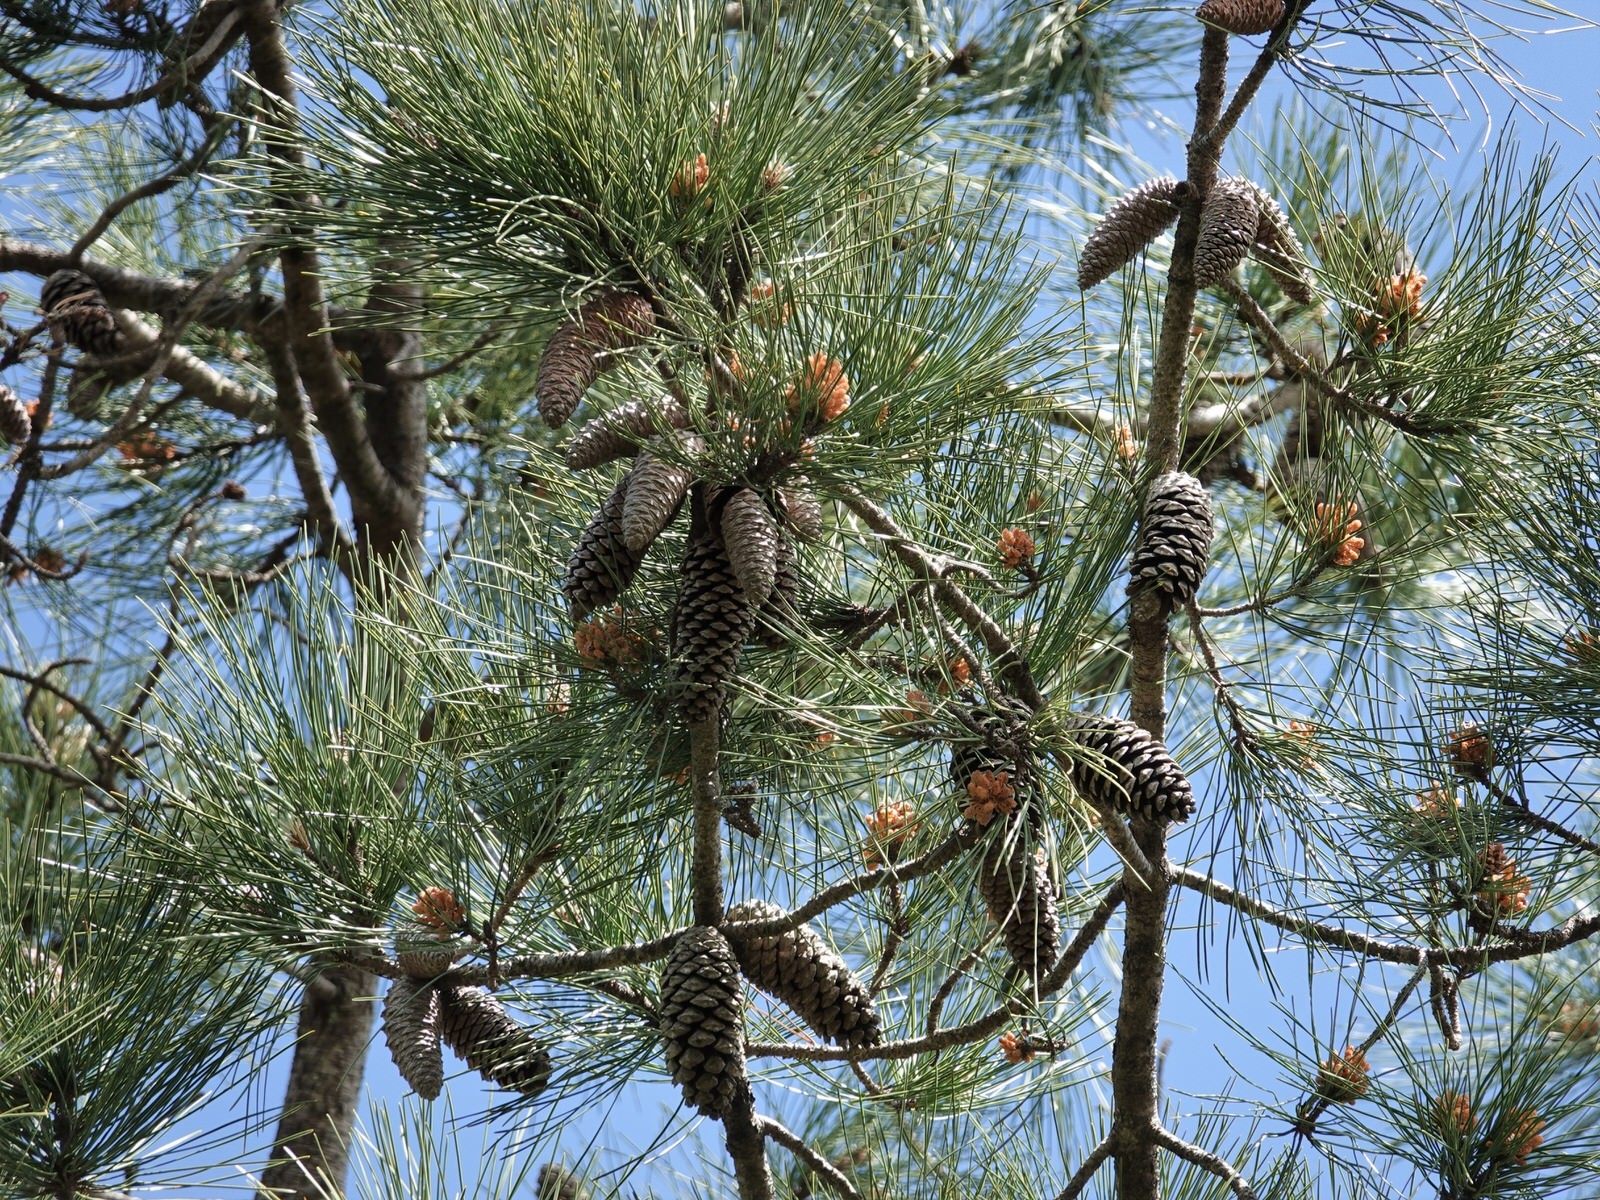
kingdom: Plantae
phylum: Tracheophyta
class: Pinopsida
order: Pinales
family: Pinaceae
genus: Pinus
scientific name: Pinus pinaster
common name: Maritime pine
